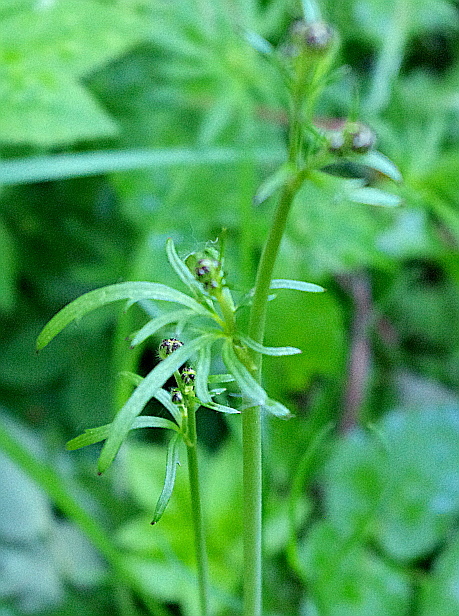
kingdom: Plantae
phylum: Tracheophyta
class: Magnoliopsida
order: Ranunculales
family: Ranunculaceae
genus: Ranunculus
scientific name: Ranunculus acris
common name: Meadow buttercup
